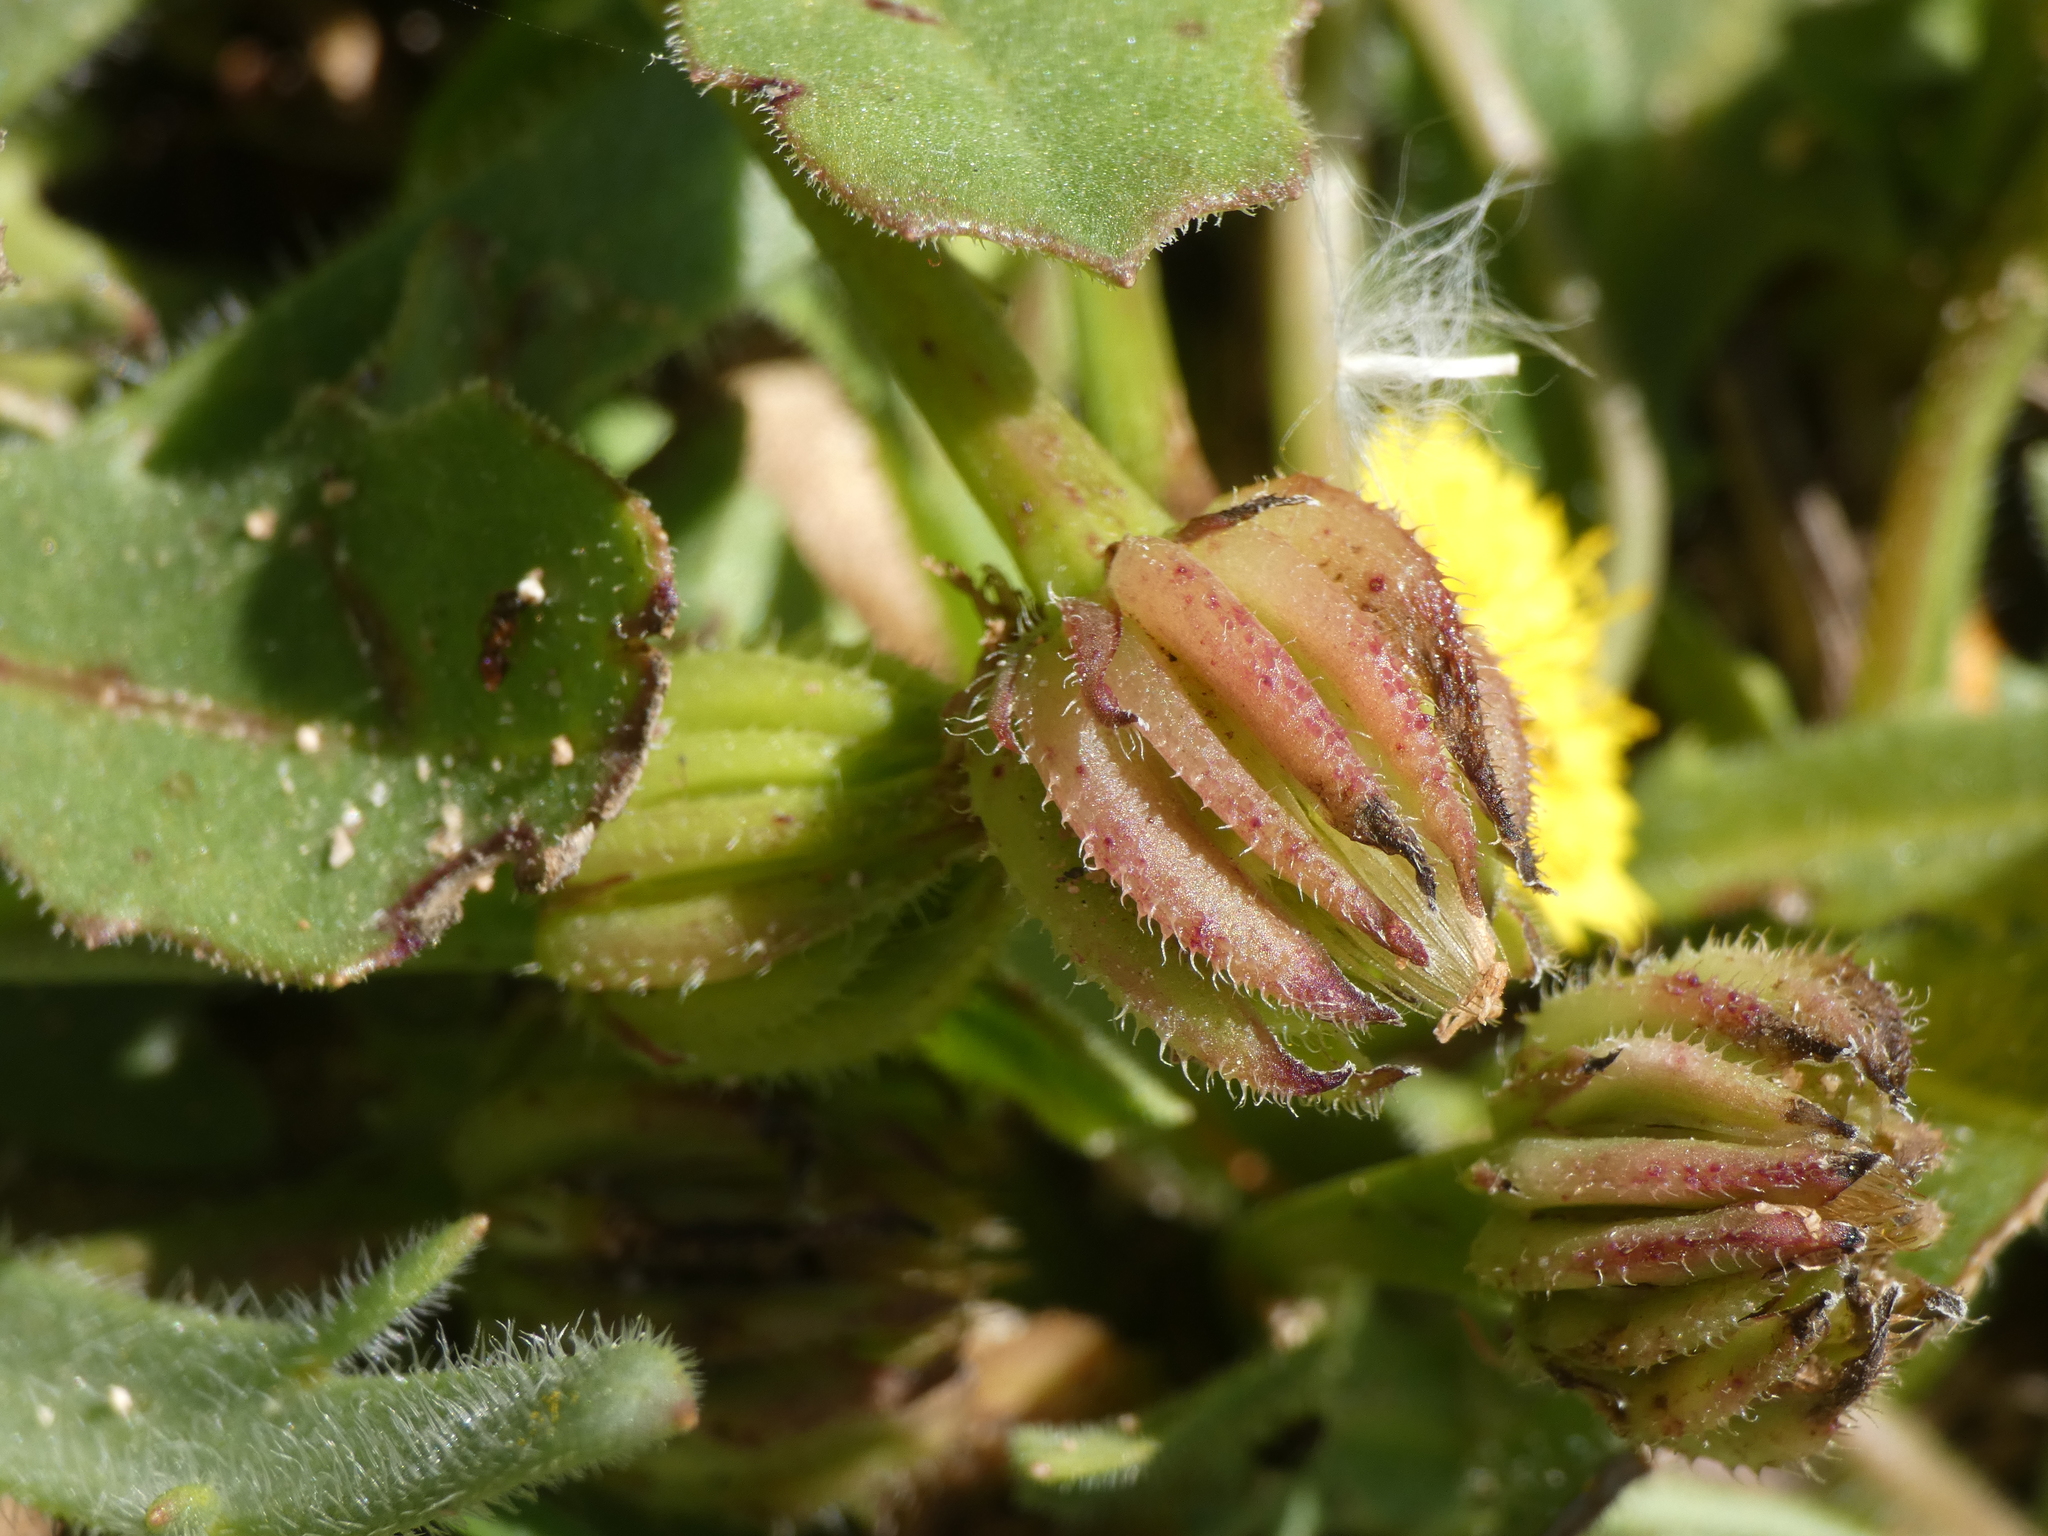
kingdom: Plantae
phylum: Tracheophyta
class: Magnoliopsida
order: Asterales
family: Asteraceae
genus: Hedypnois
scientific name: Hedypnois rhagadioloides
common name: Cretan weed
